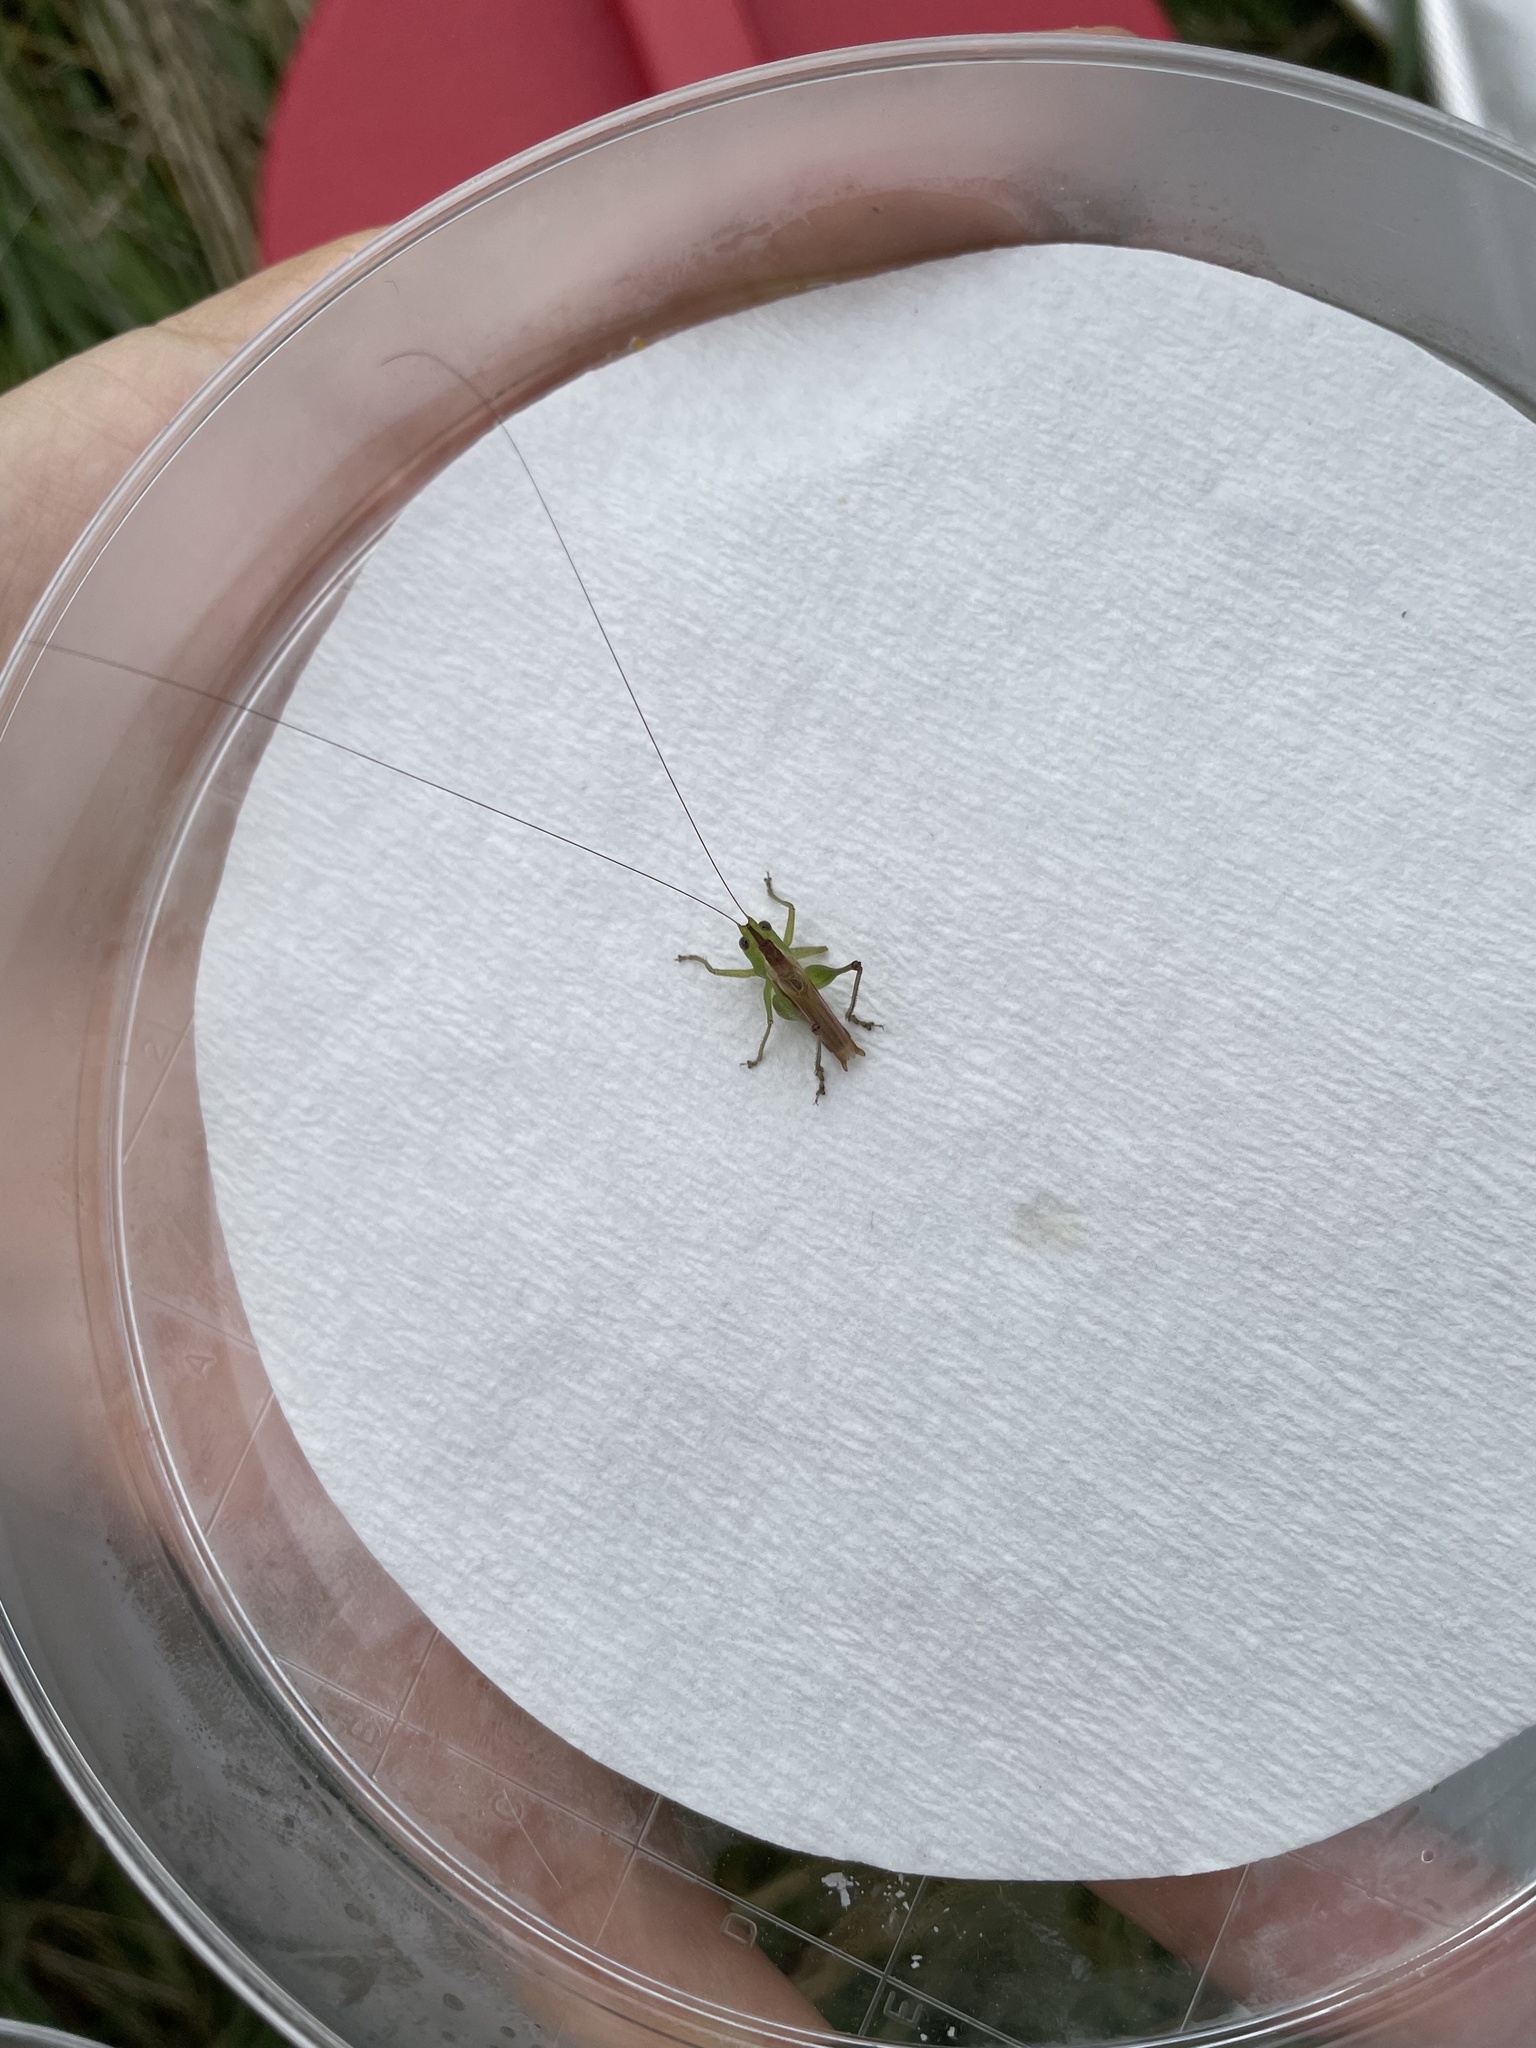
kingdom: Animalia
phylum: Arthropoda
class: Insecta
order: Orthoptera
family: Tettigoniidae
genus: Conocephalus
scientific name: Conocephalus brevipennis
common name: Short-winged meadow katydid
